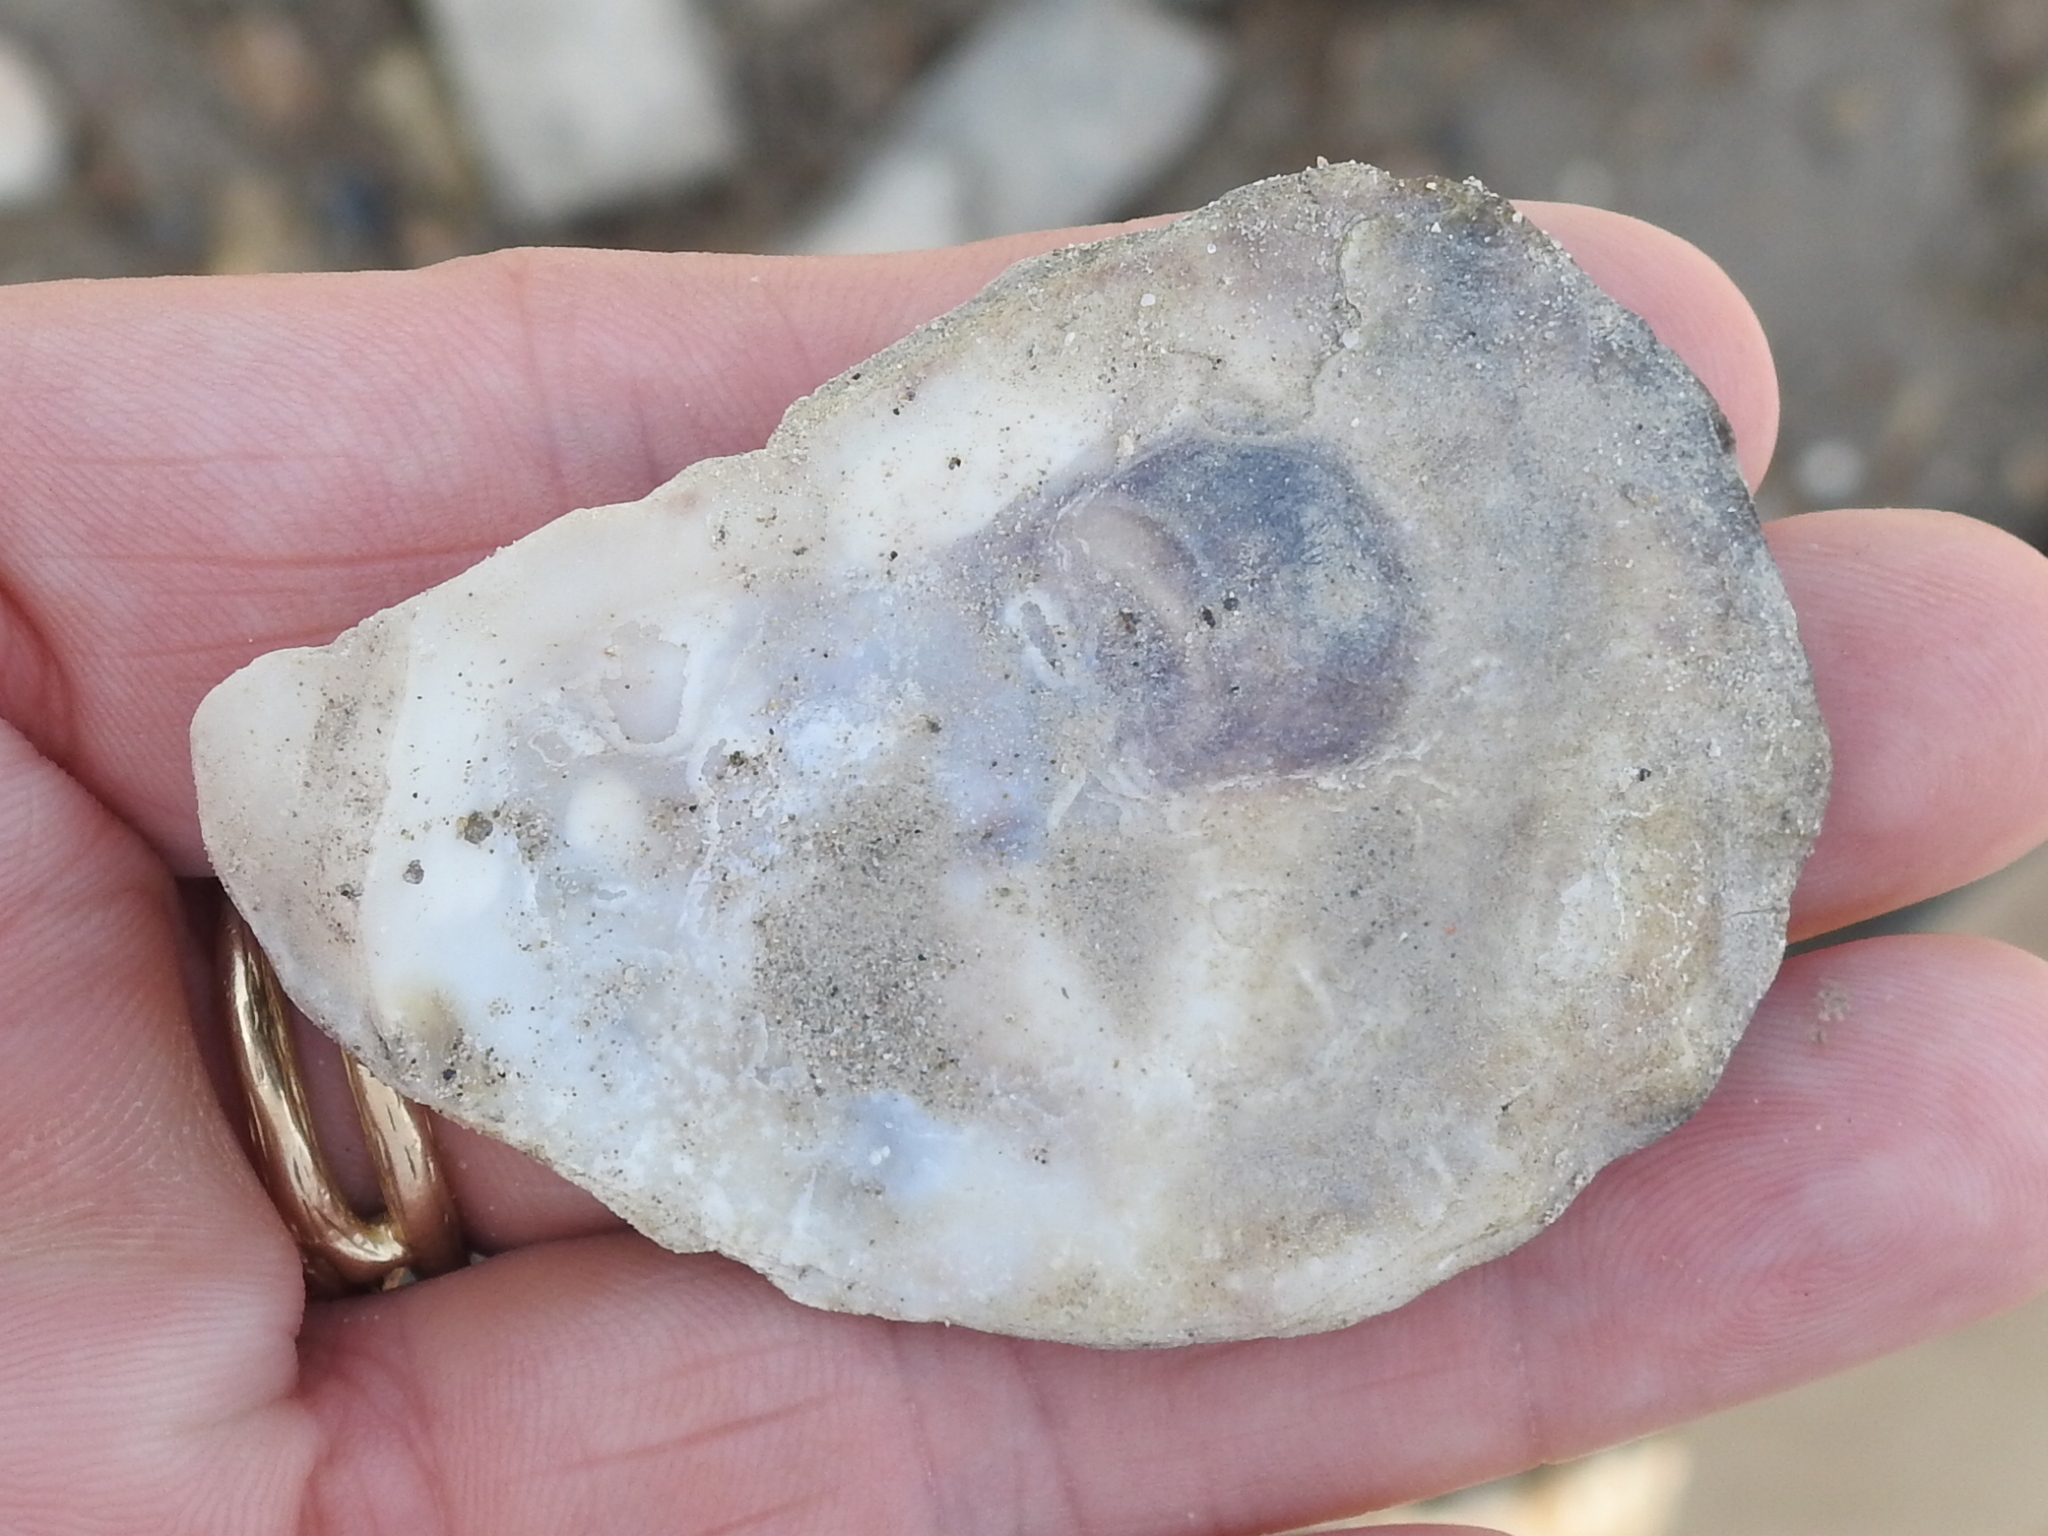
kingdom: Animalia
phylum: Mollusca
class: Bivalvia
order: Ostreida
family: Ostreidae
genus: Crassostrea
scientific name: Crassostrea virginica
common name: American oyster
